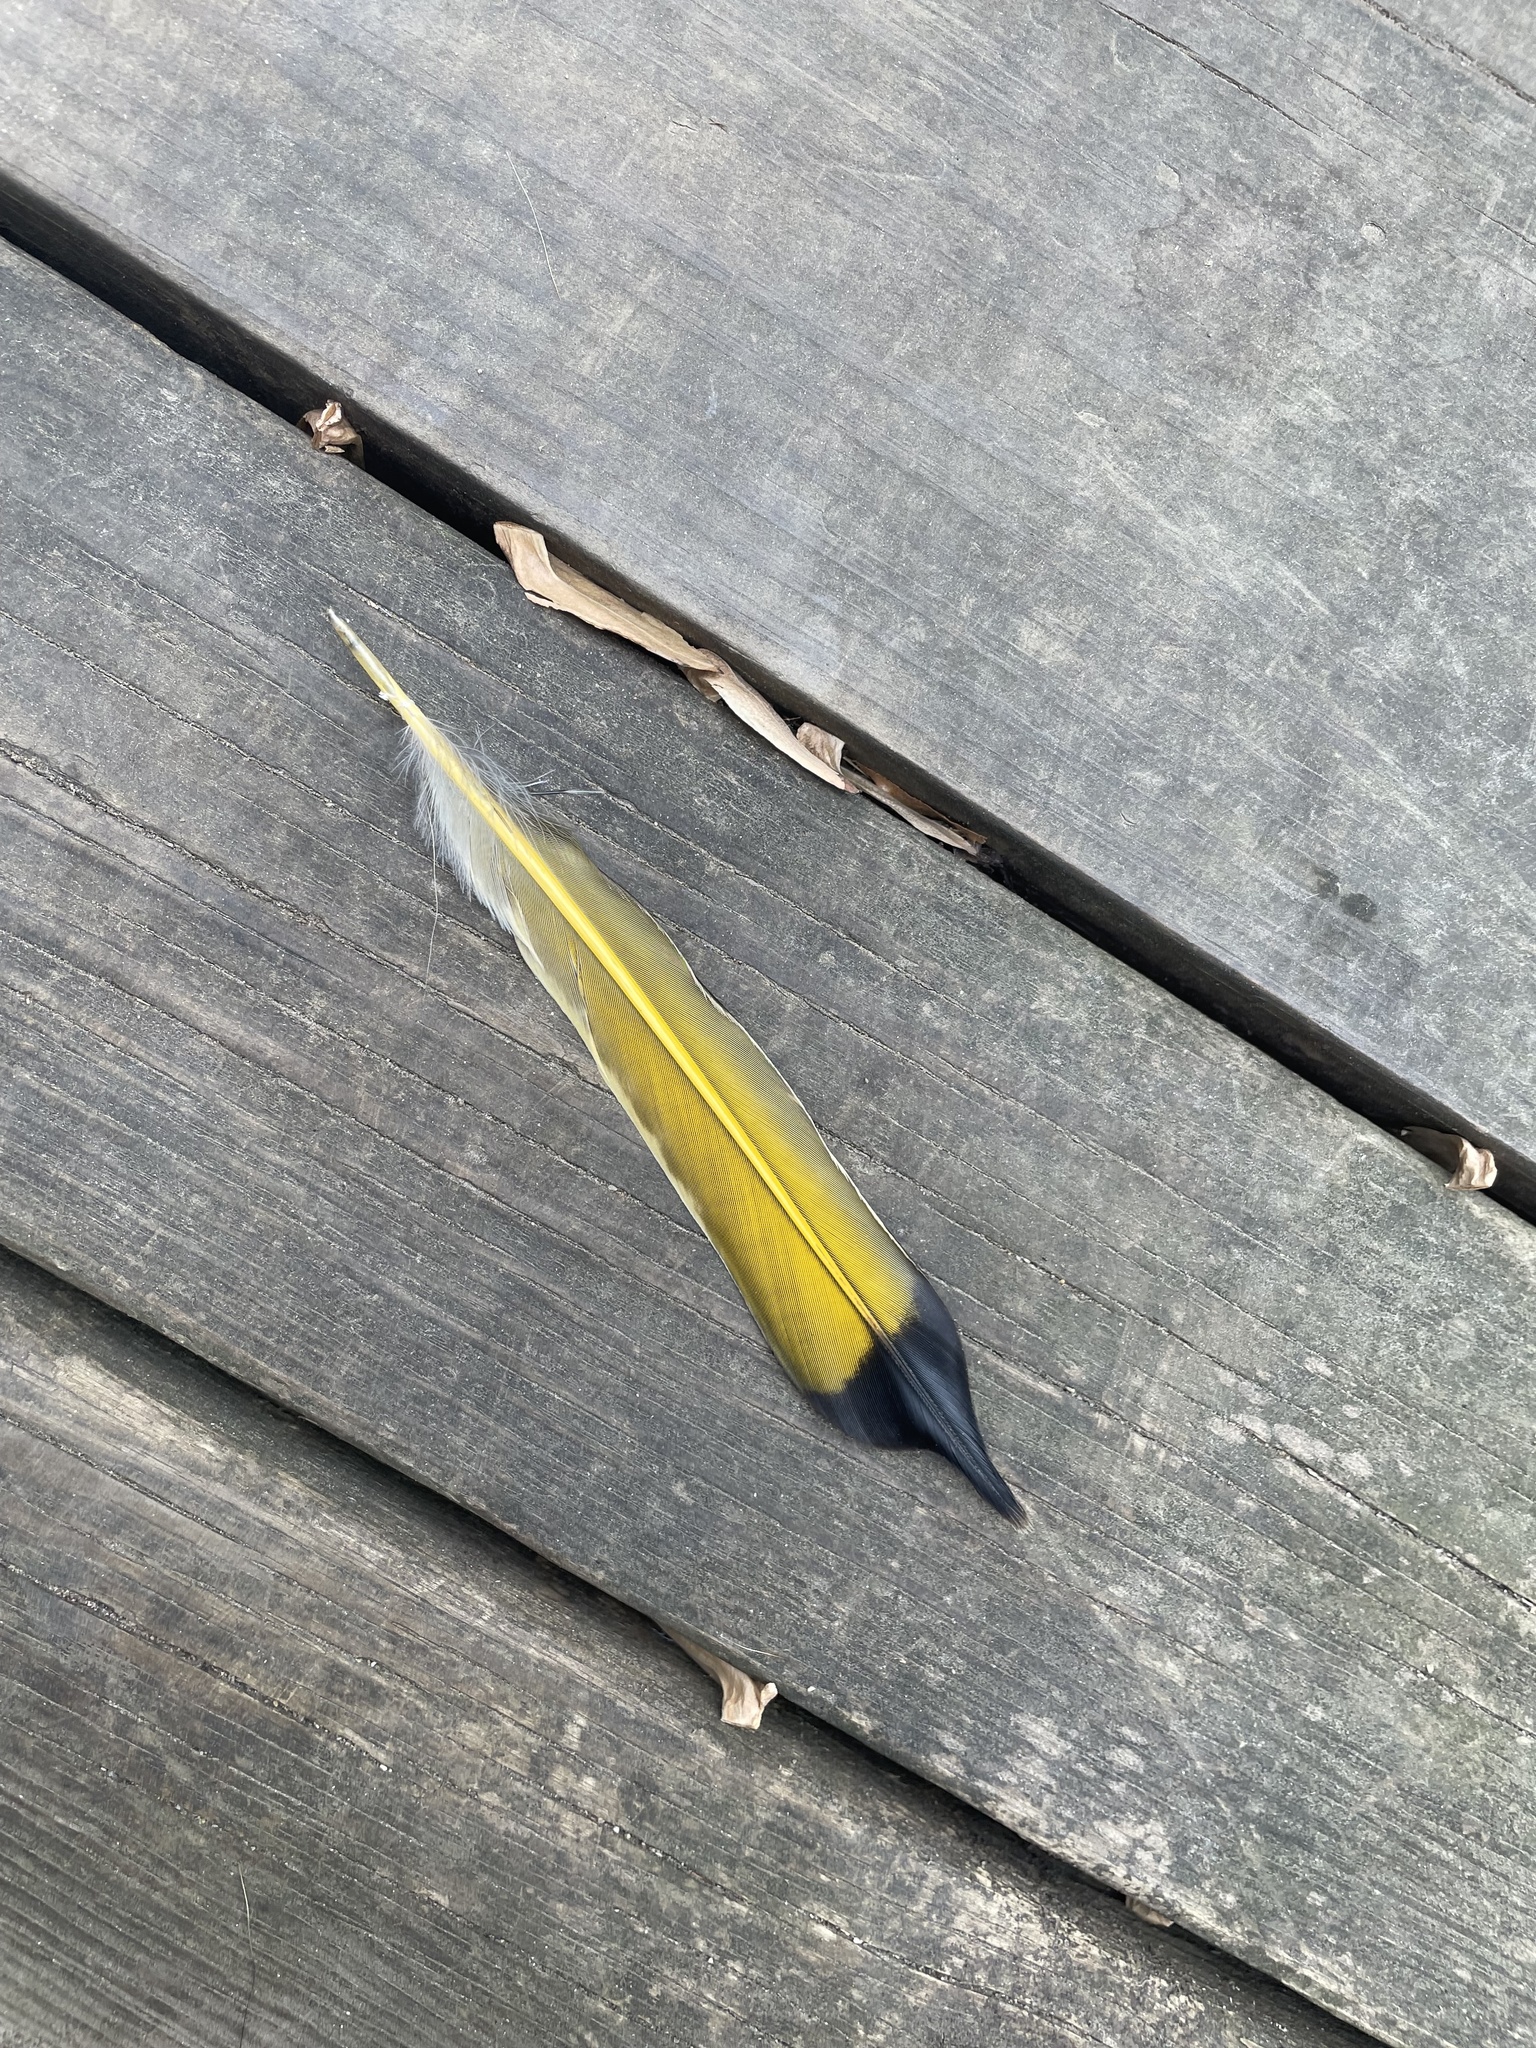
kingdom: Animalia
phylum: Chordata
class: Aves
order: Piciformes
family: Picidae
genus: Colaptes
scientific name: Colaptes auratus
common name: Northern flicker
